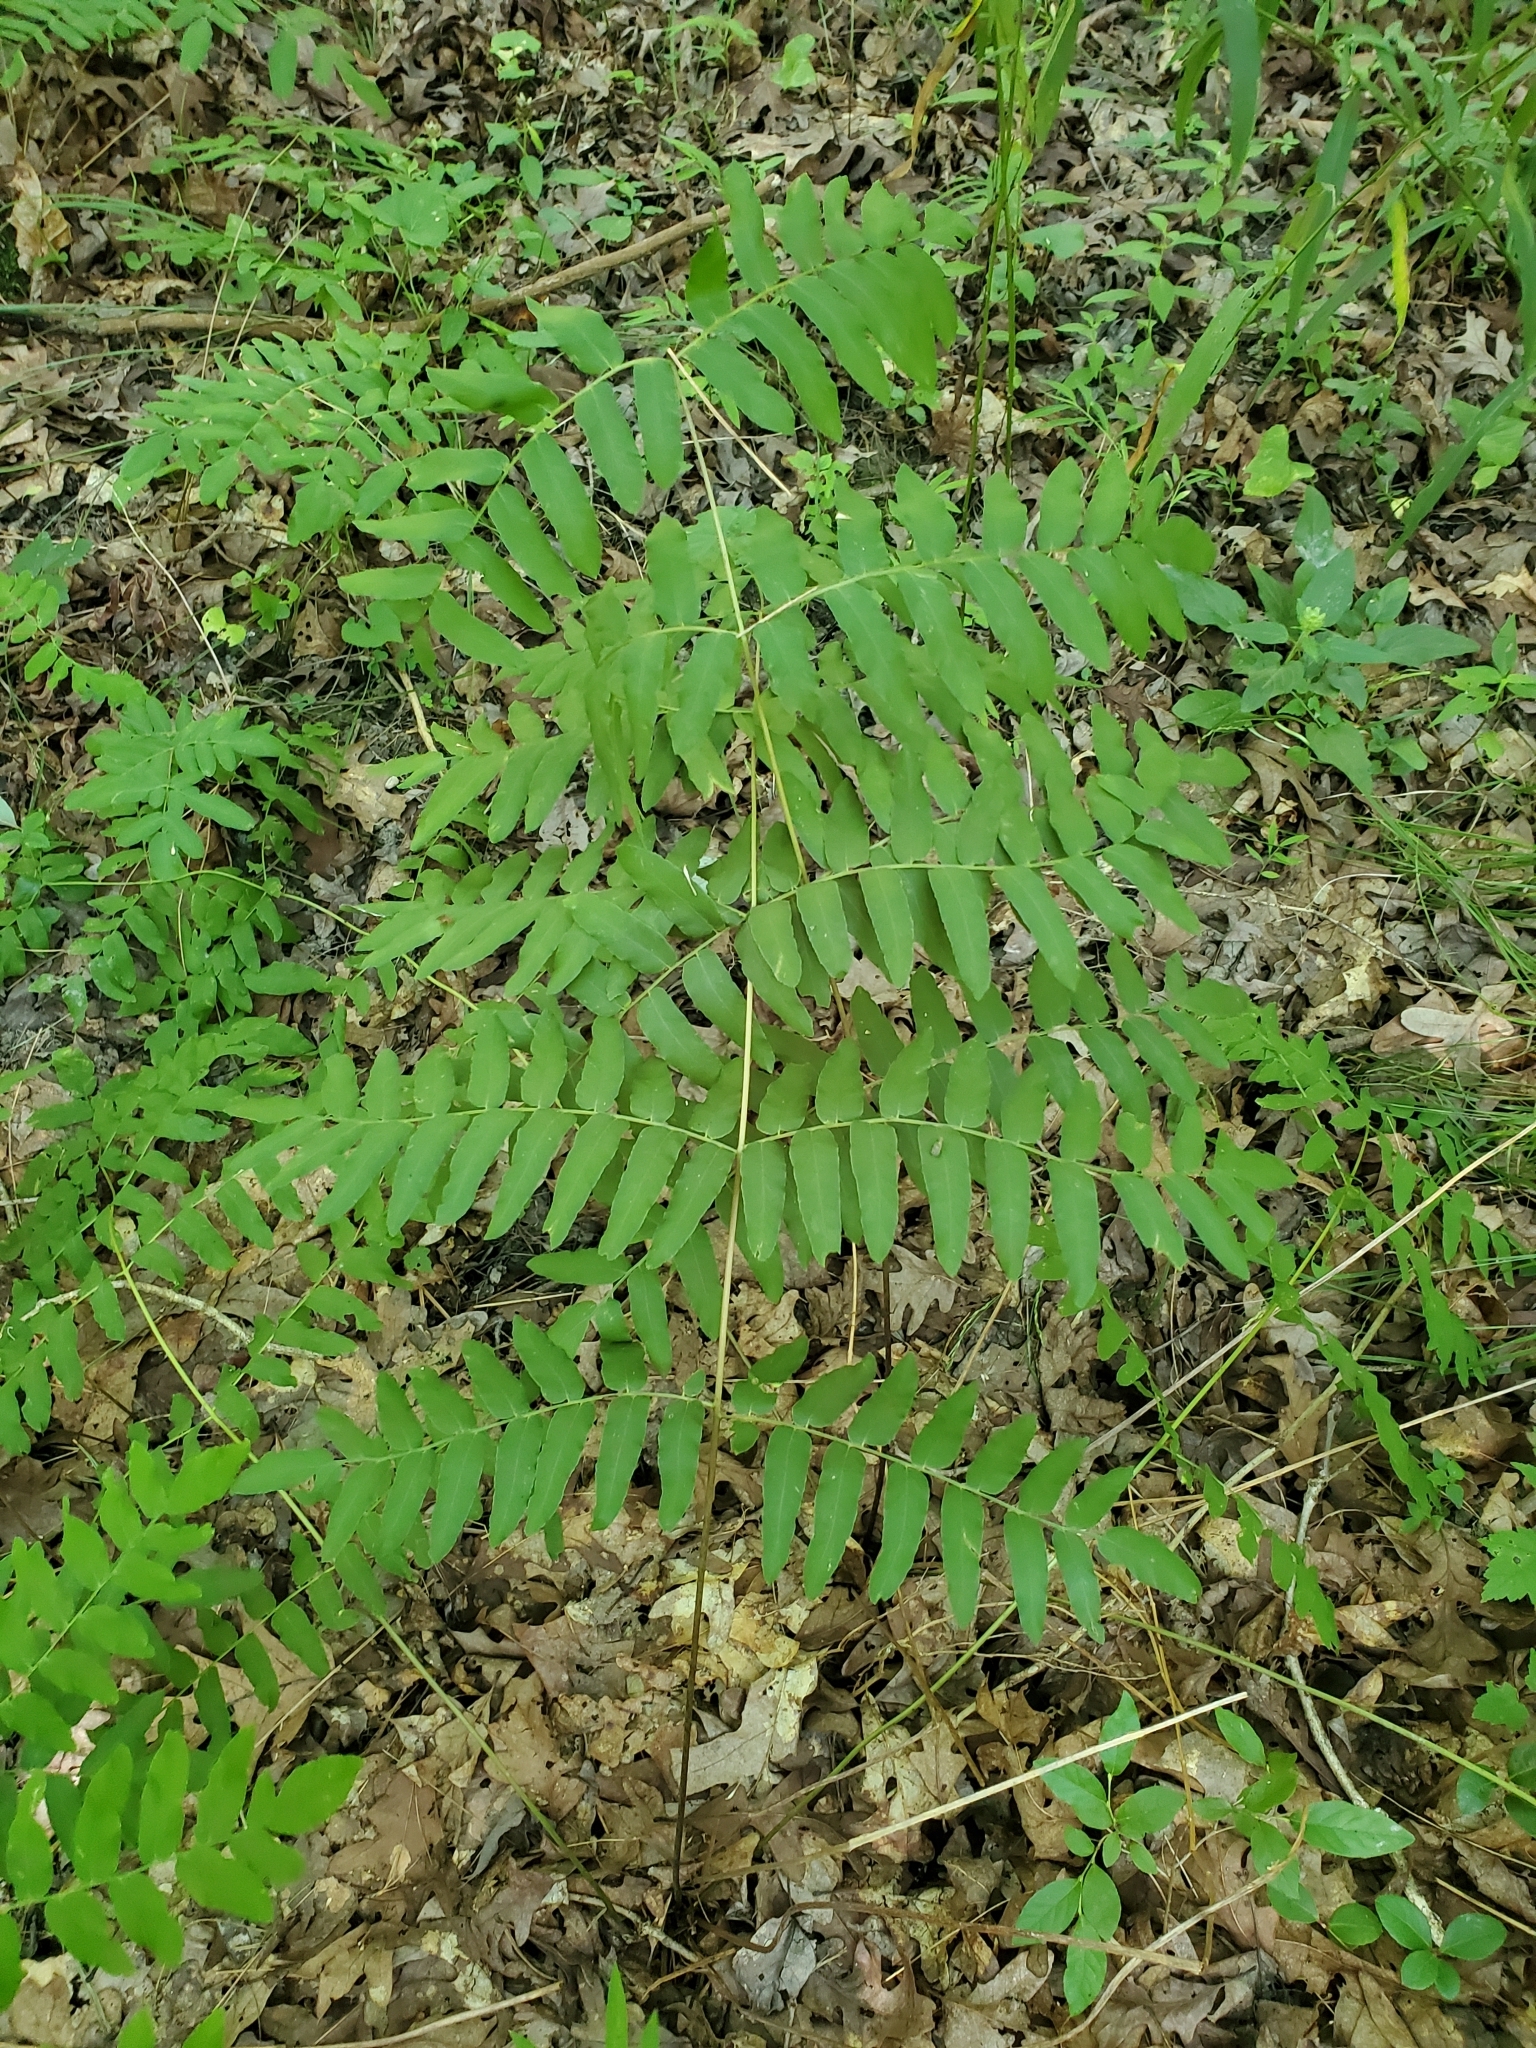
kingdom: Plantae
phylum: Tracheophyta
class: Polypodiopsida
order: Osmundales
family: Osmundaceae
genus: Osmunda
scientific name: Osmunda spectabilis
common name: American royal fern
